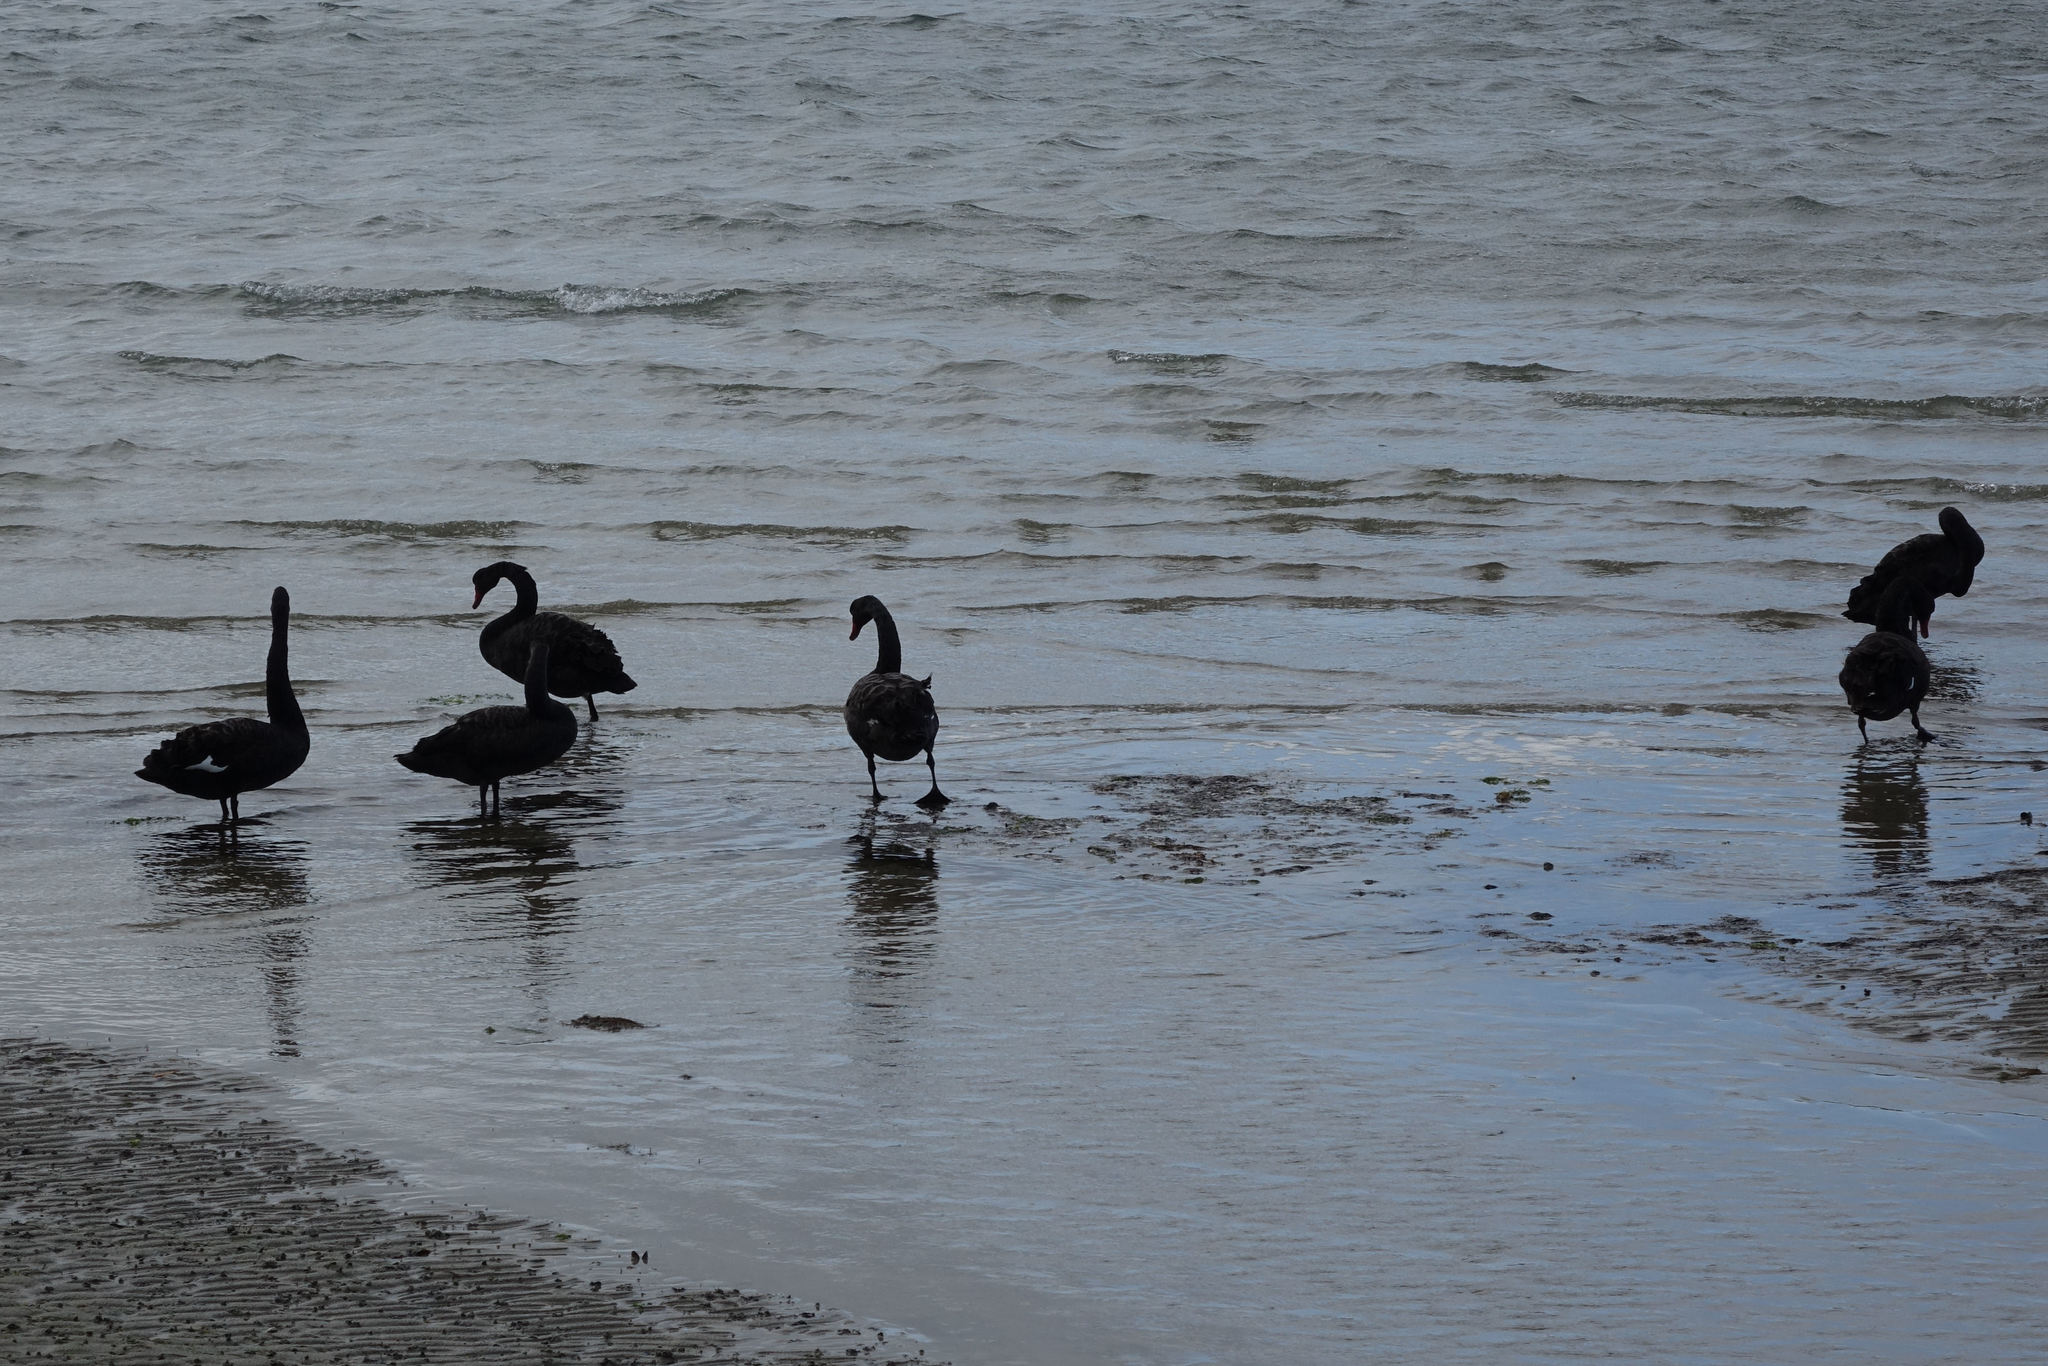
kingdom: Animalia
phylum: Chordata
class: Aves
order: Anseriformes
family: Anatidae
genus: Cygnus
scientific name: Cygnus atratus
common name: Black swan
